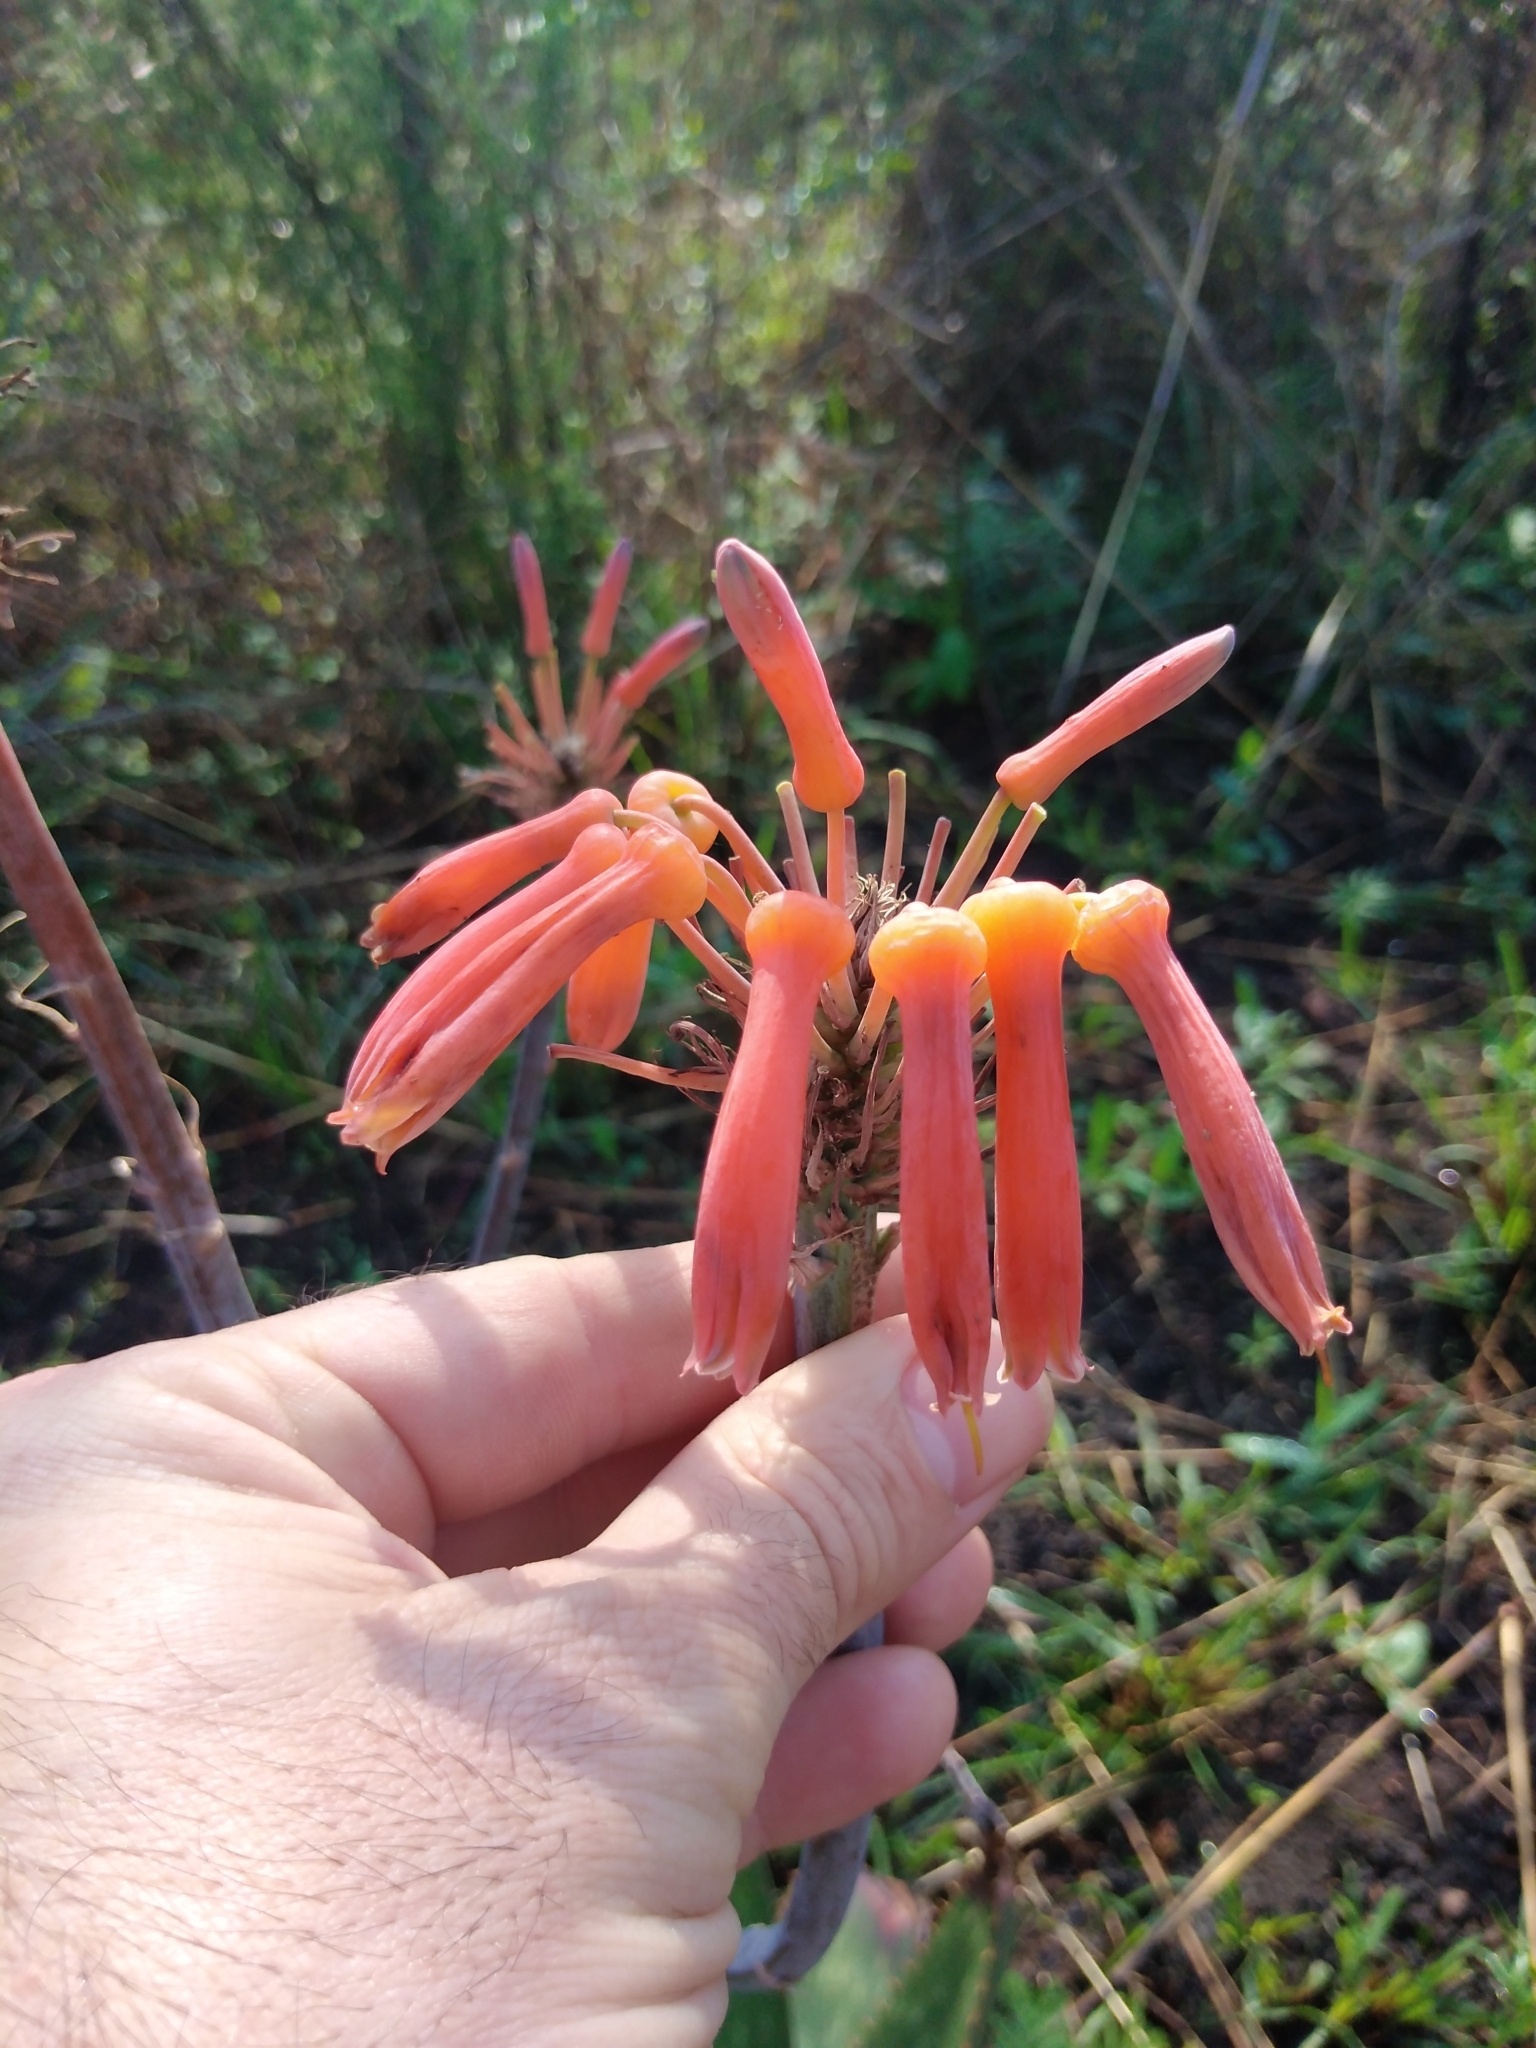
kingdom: Plantae
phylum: Tracheophyta
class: Liliopsida
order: Asparagales
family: Asphodelaceae
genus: Aloe
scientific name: Aloe maculata
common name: Broadleaf aloe
